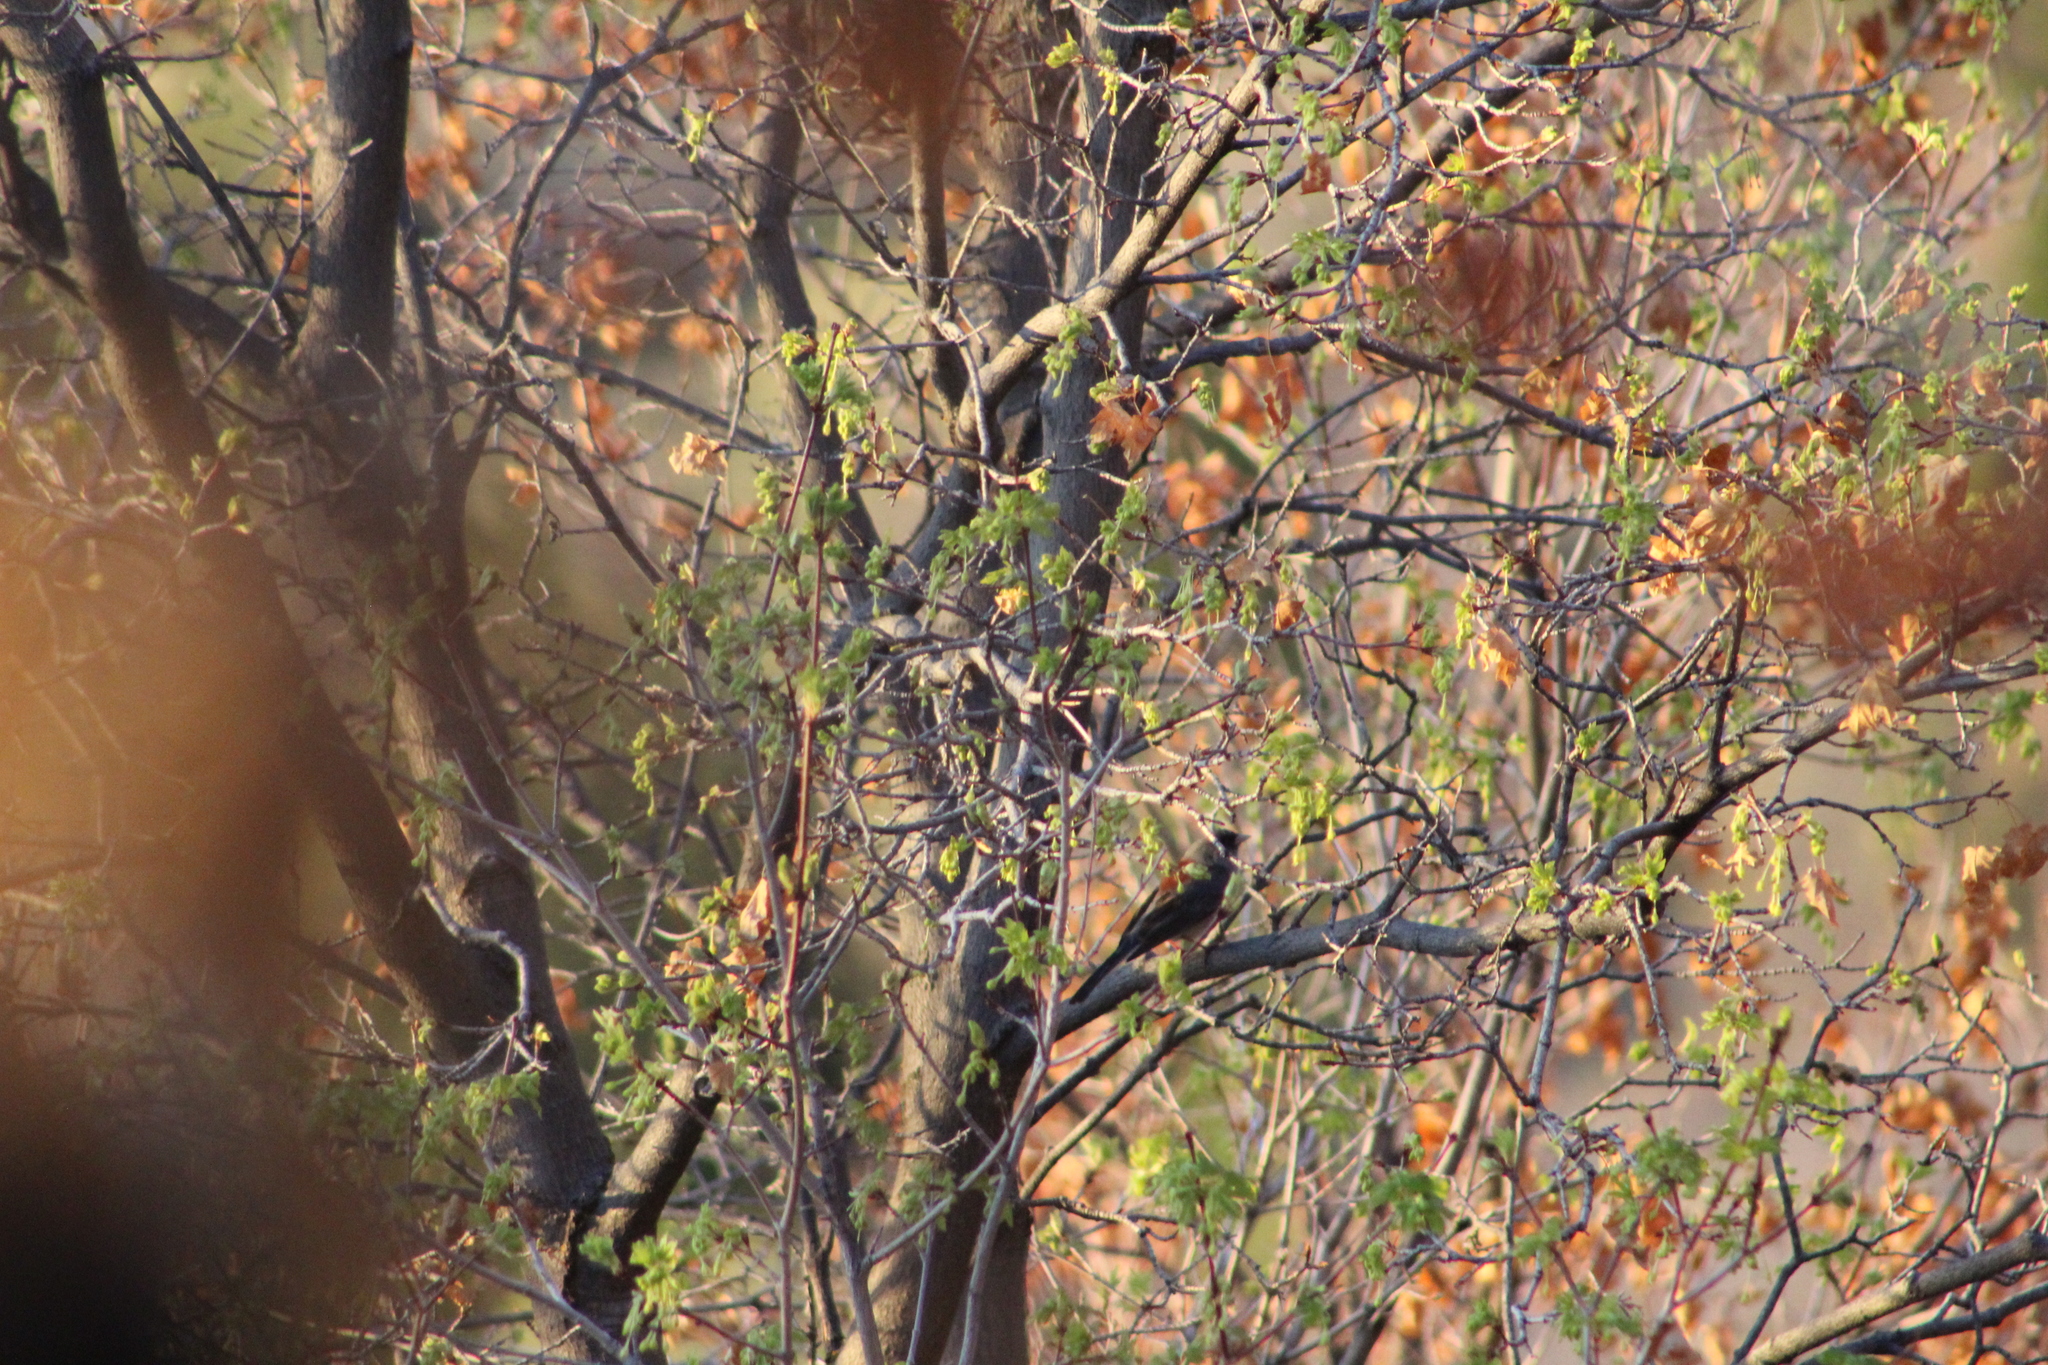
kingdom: Animalia
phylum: Chordata
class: Aves
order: Passeriformes
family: Passerellidae
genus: Junco
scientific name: Junco hyemalis
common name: Dark-eyed junco
